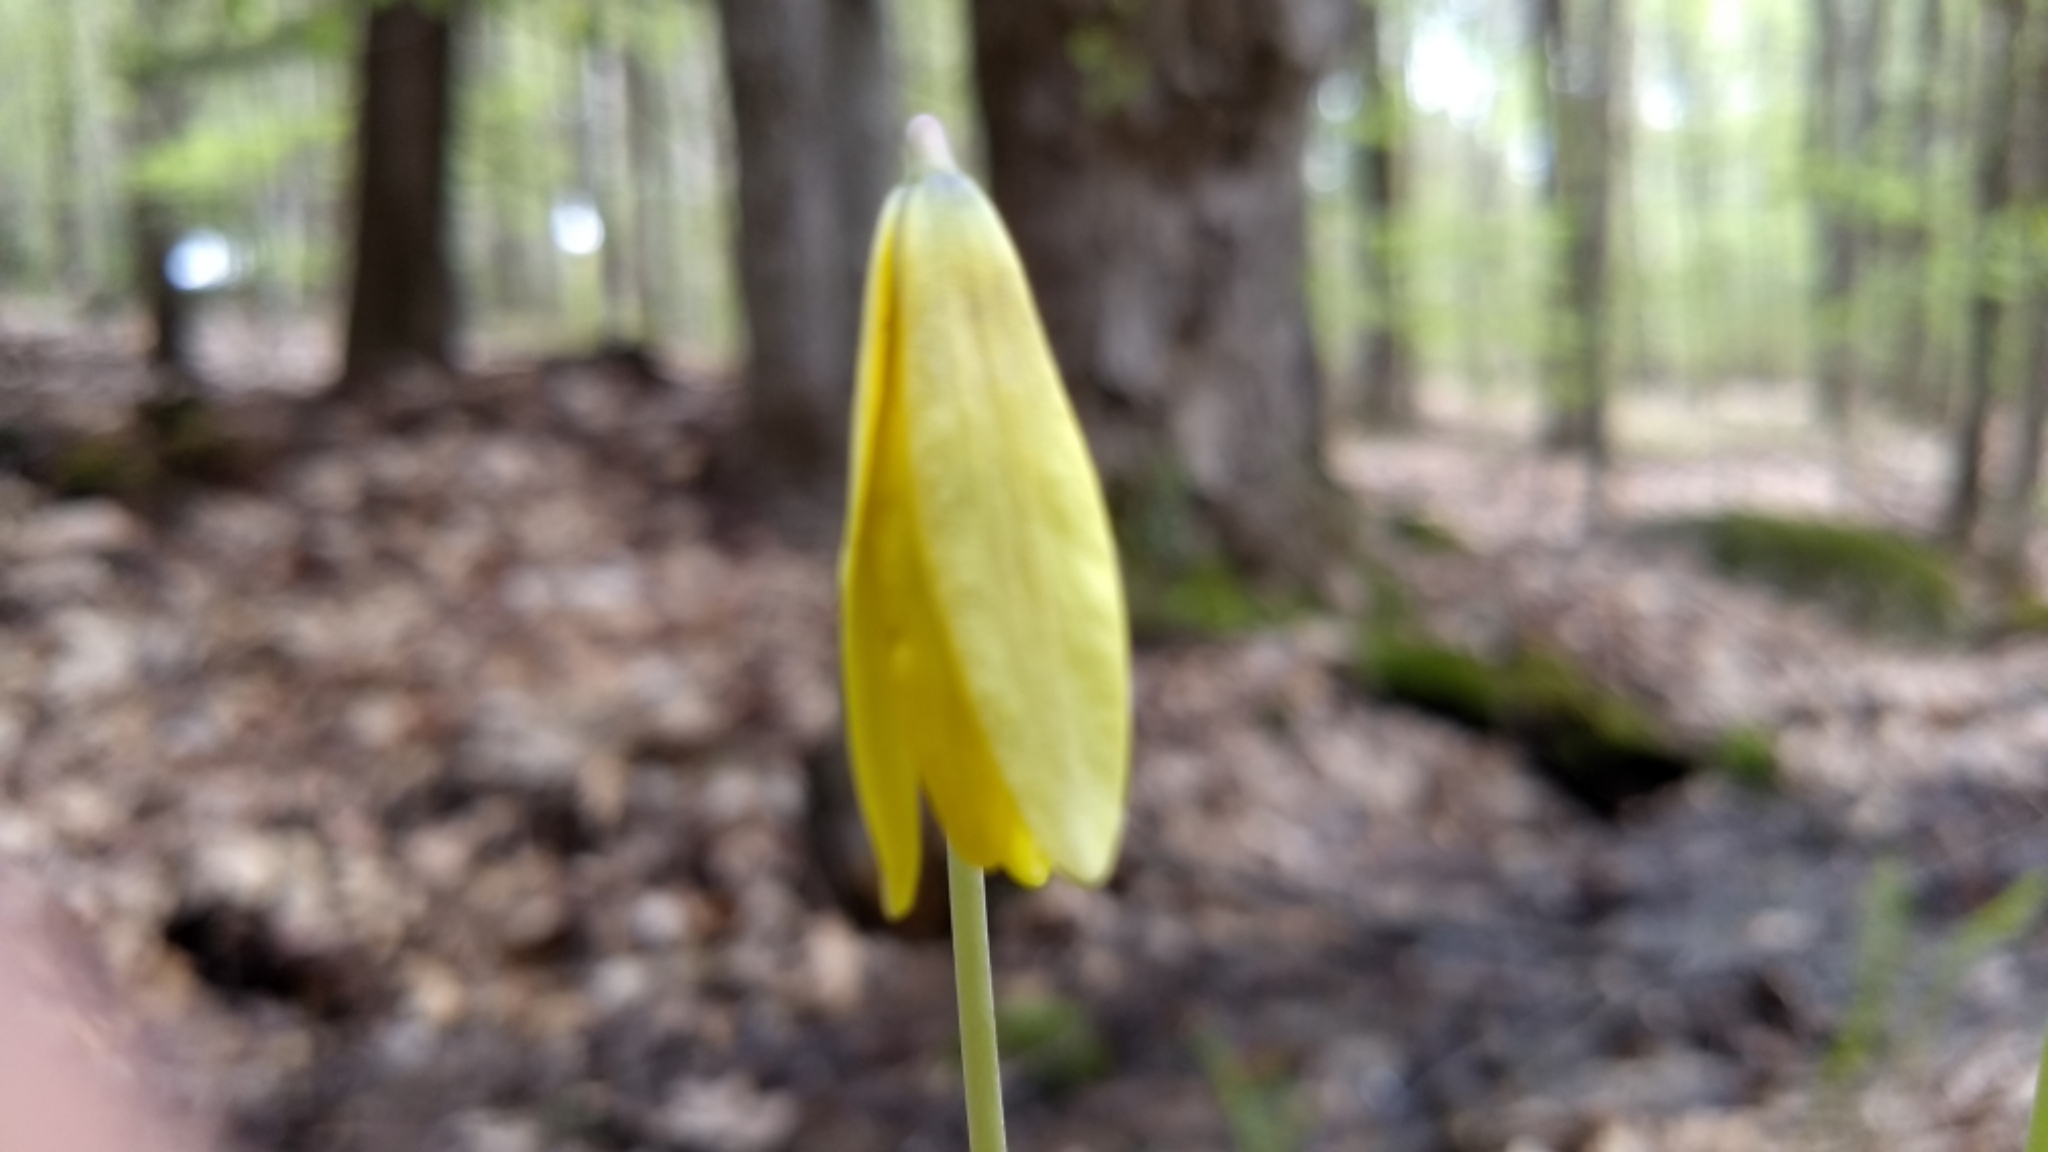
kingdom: Plantae
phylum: Tracheophyta
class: Liliopsida
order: Liliales
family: Liliaceae
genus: Erythronium
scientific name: Erythronium americanum
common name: Yellow adder's-tongue
